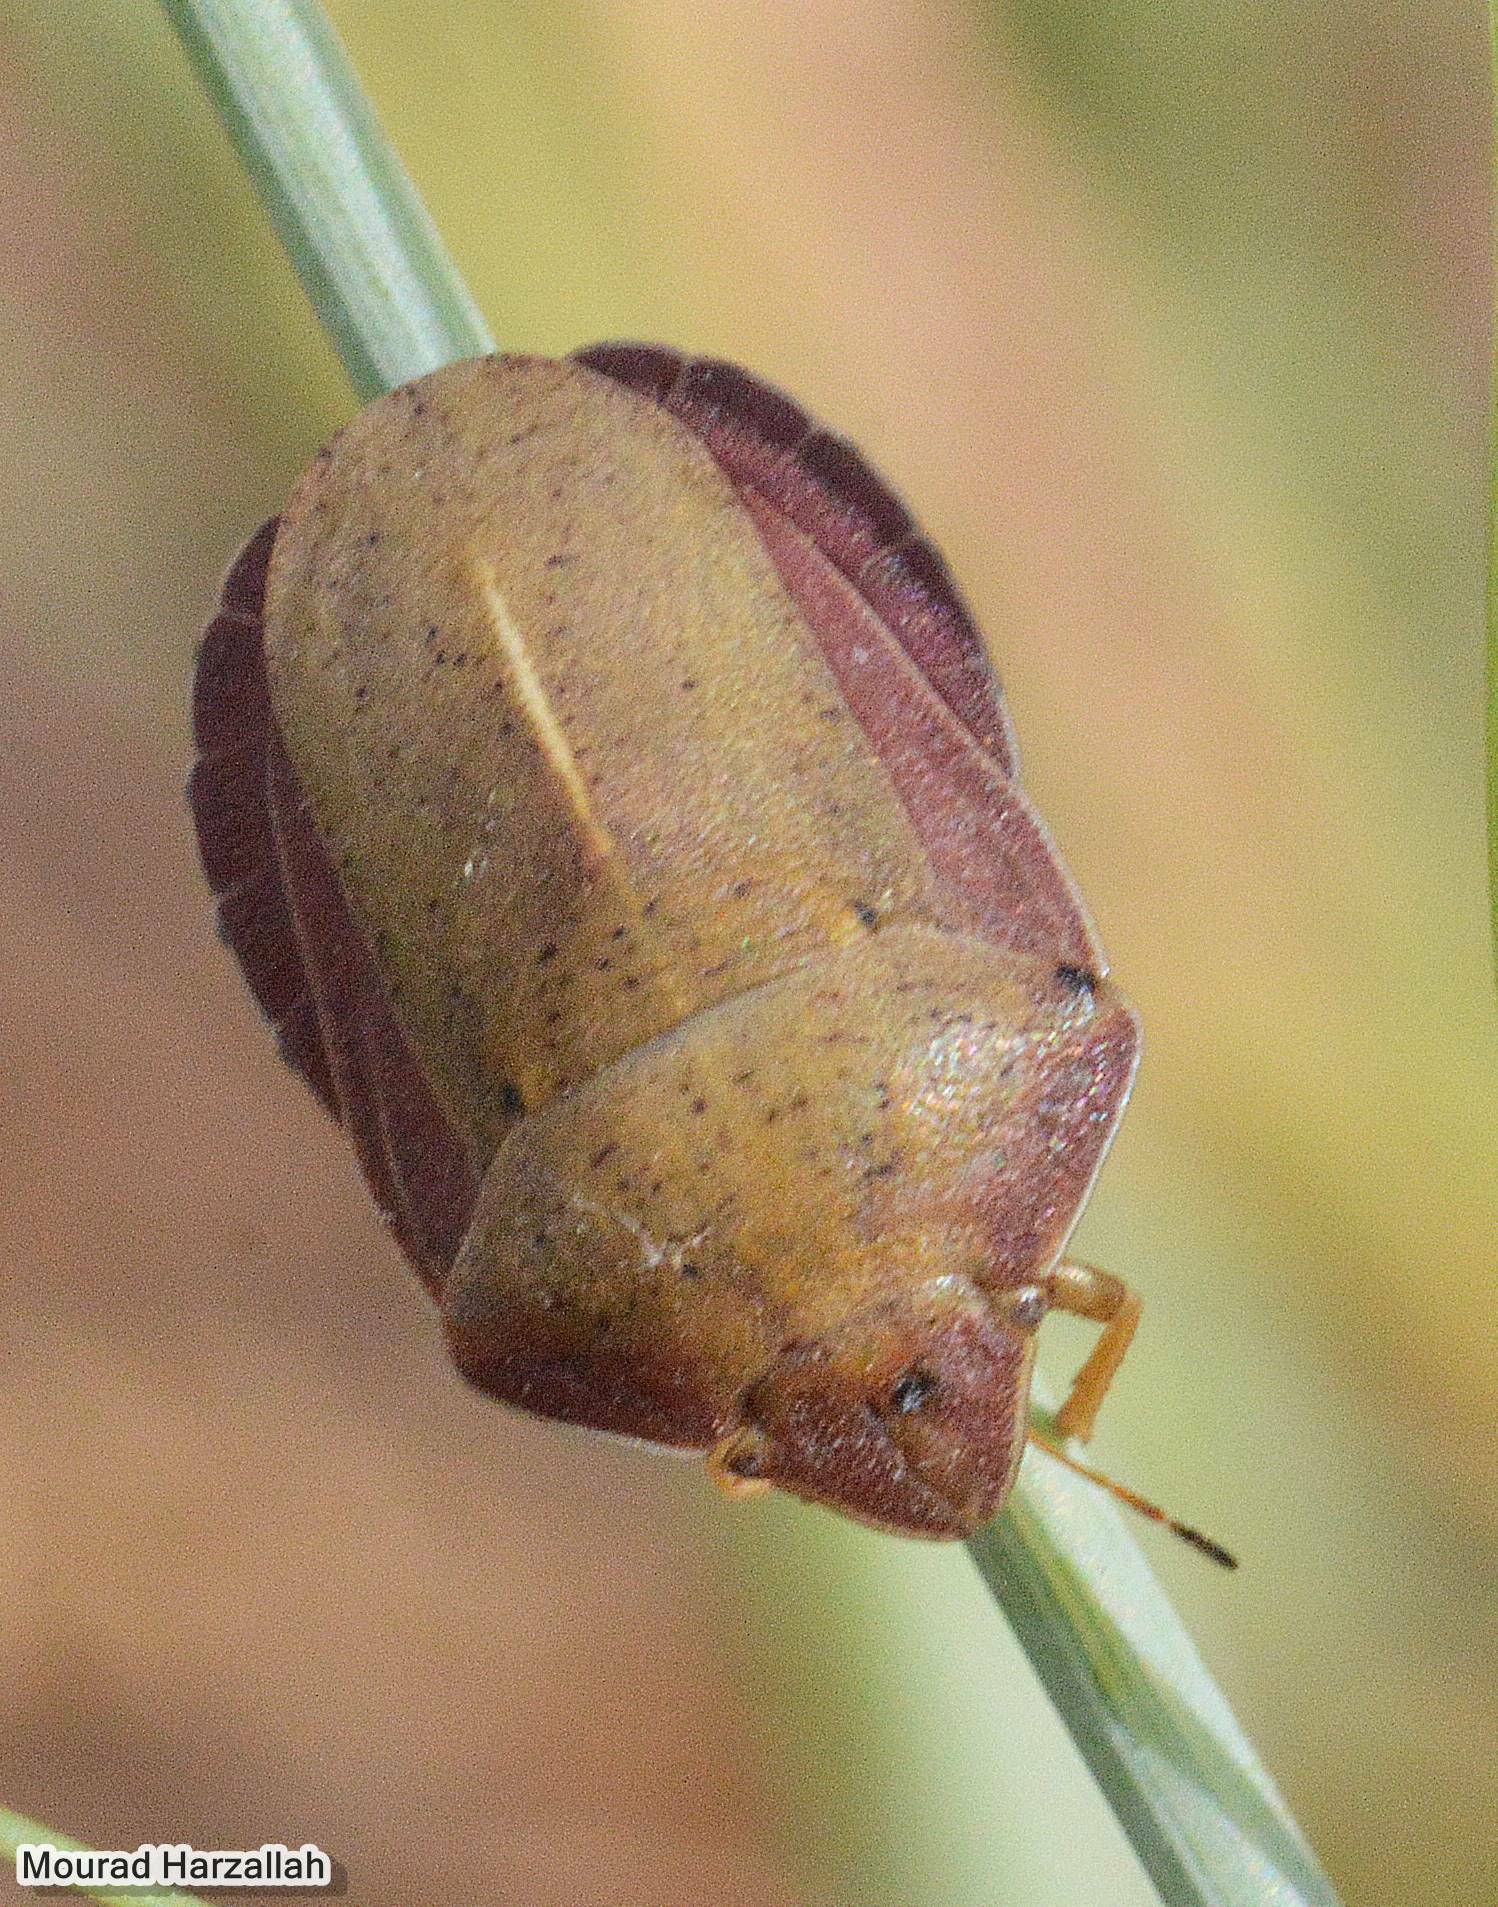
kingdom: Animalia
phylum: Arthropoda
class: Insecta
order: Hemiptera
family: Scutelleridae
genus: Eurygaster
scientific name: Eurygaster austriaca
